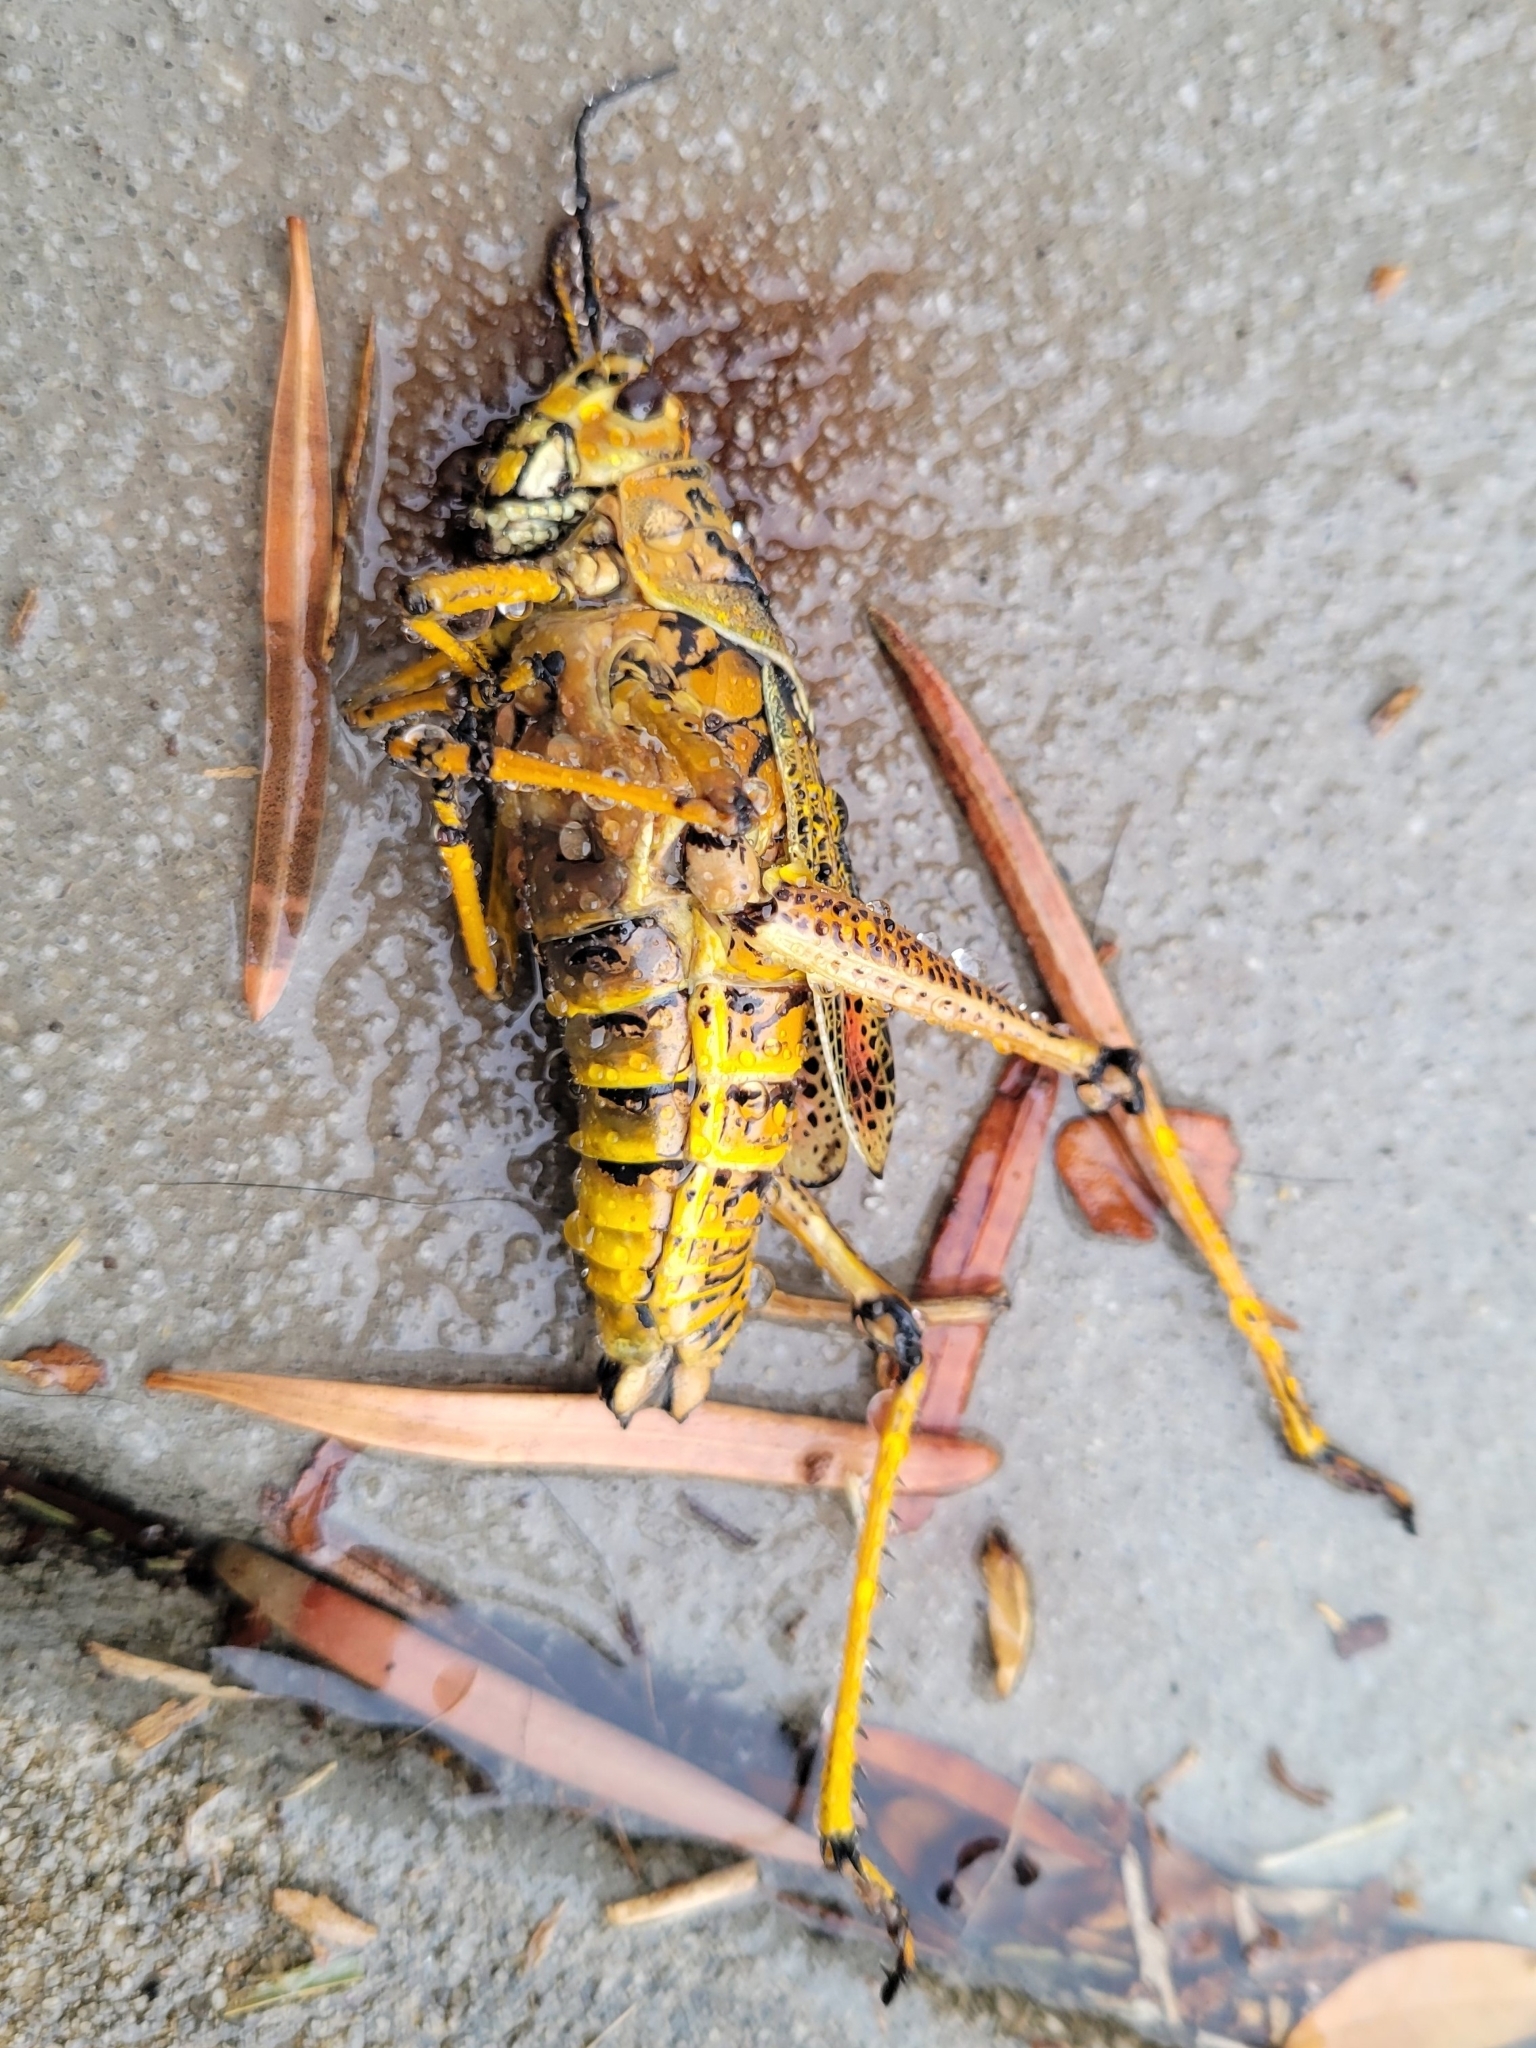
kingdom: Animalia
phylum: Arthropoda
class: Insecta
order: Orthoptera
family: Romaleidae
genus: Romalea
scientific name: Romalea microptera
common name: Eastern lubber grasshopper
